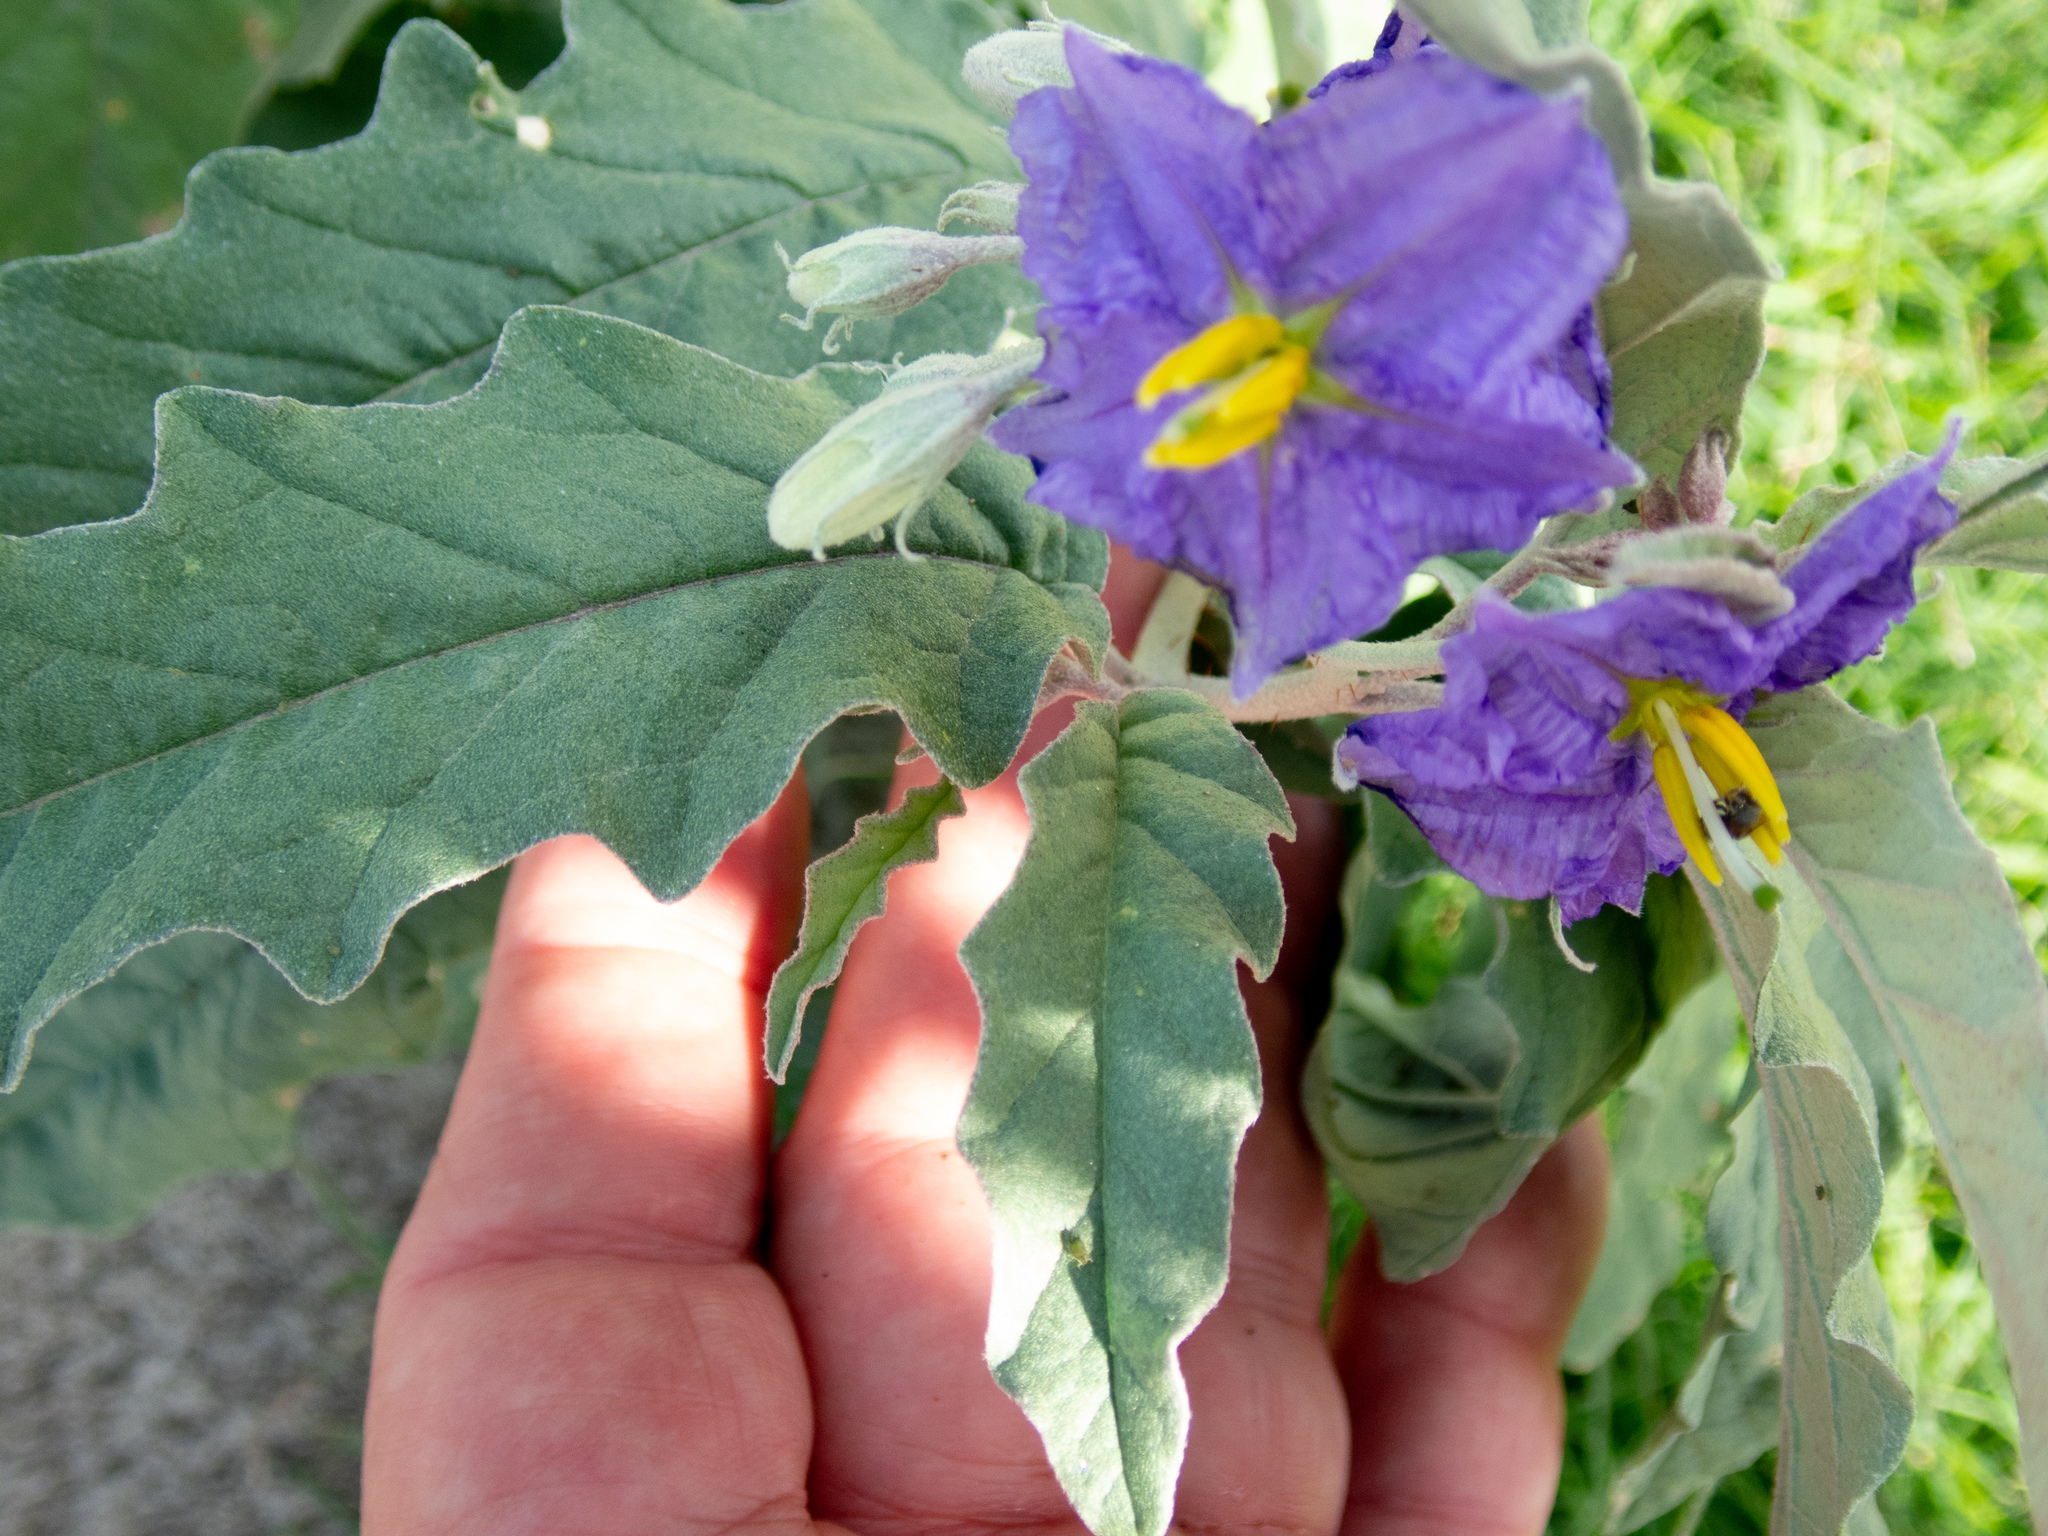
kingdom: Plantae
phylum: Tracheophyta
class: Magnoliopsida
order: Solanales
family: Solanaceae
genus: Solanum
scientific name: Solanum elaeagnifolium
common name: Silverleaf nightshade
